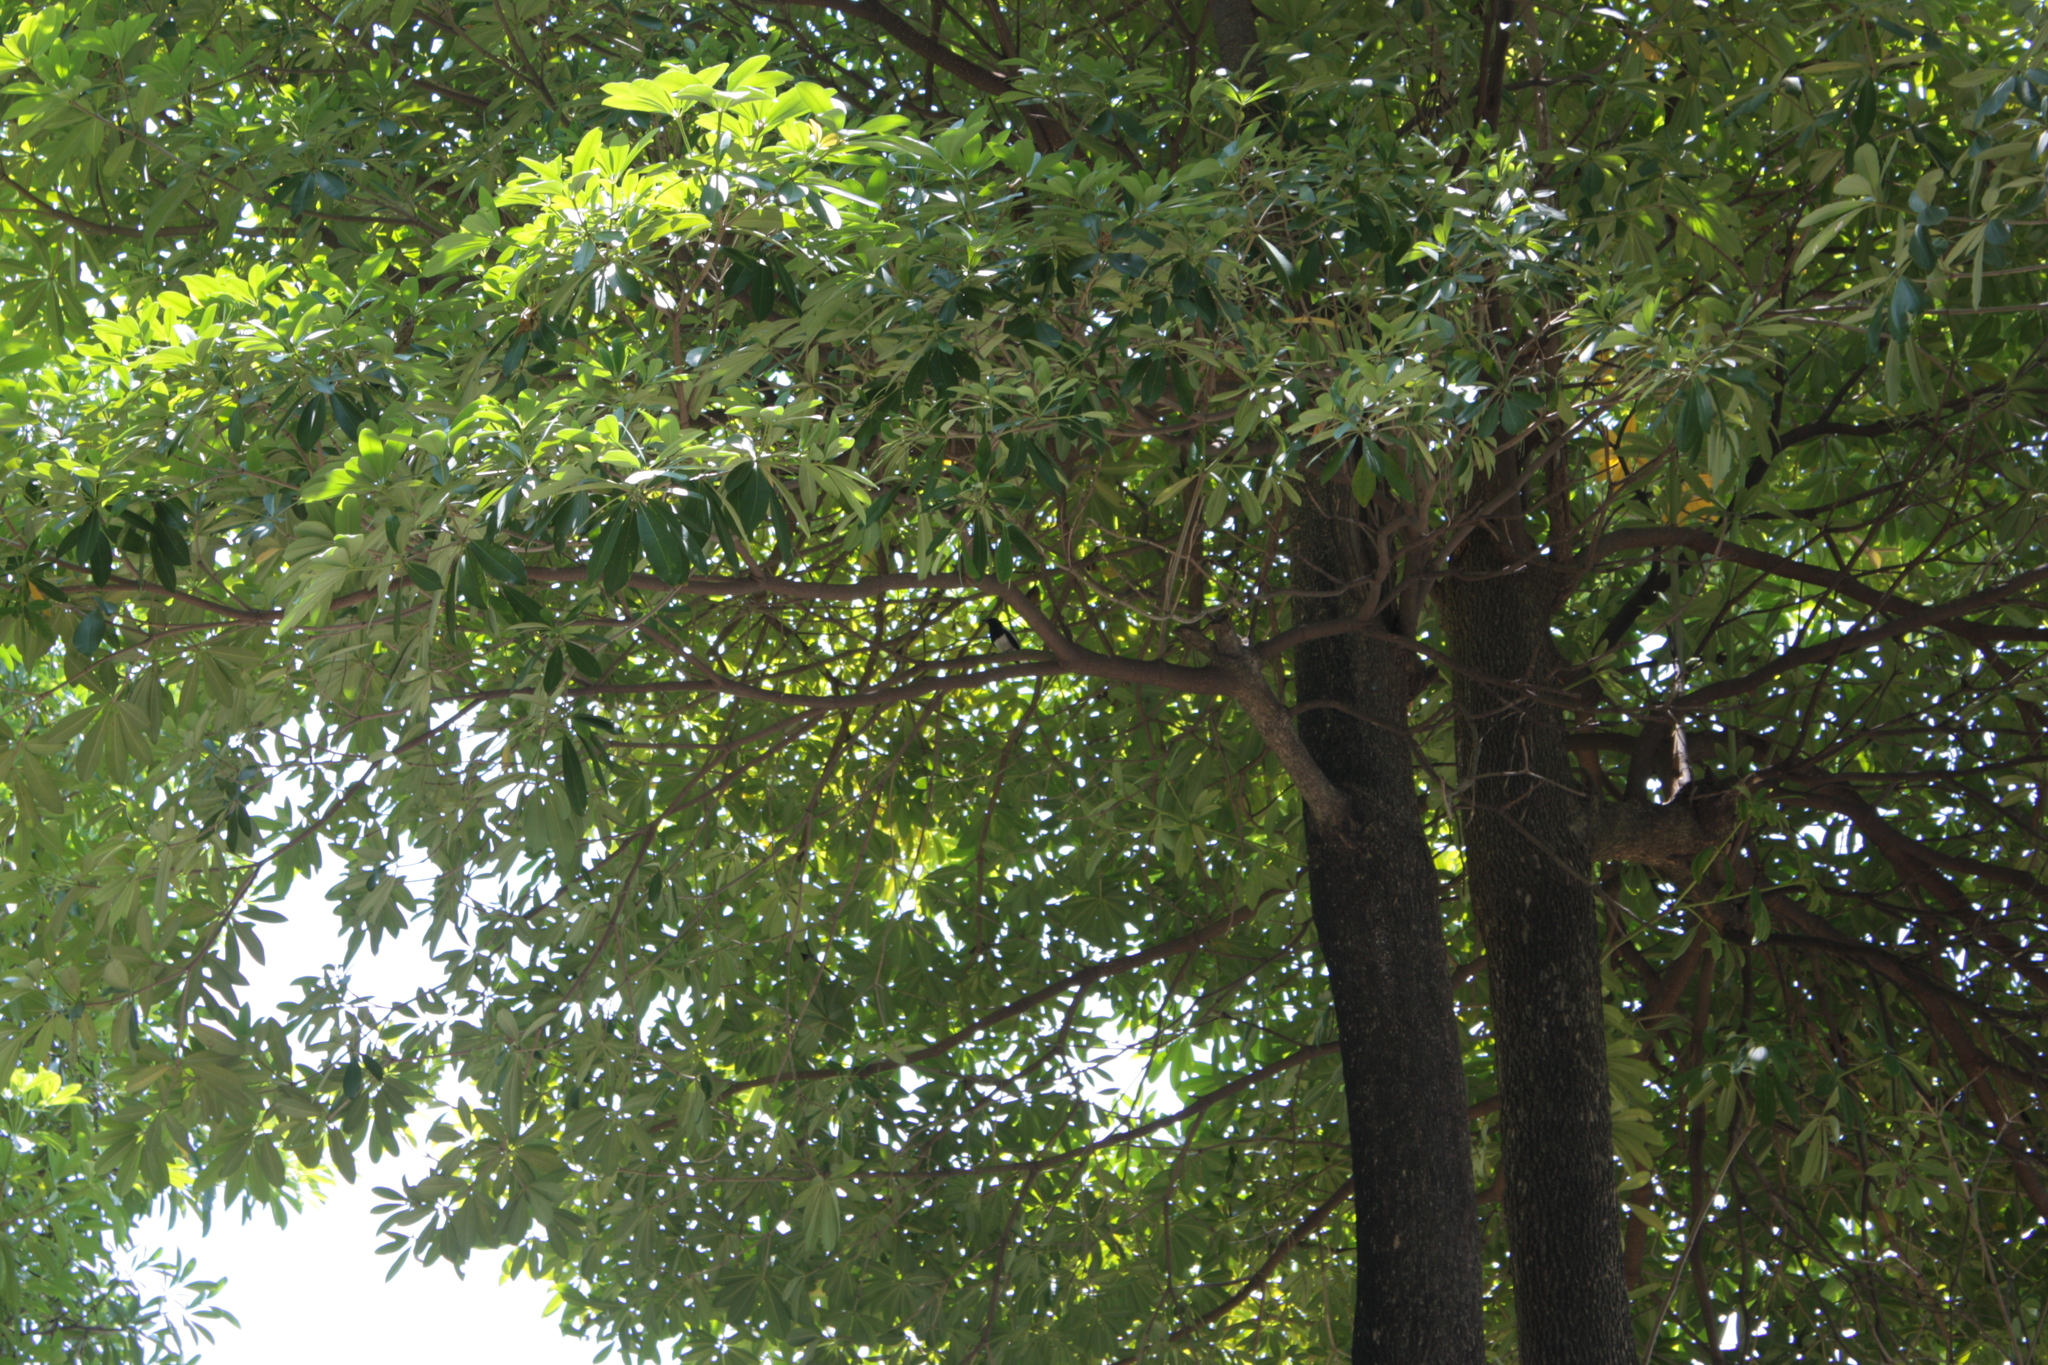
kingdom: Animalia
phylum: Chordata
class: Aves
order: Passeriformes
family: Muscicapidae
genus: Copsychus
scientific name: Copsychus saularis
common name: Oriental magpie-robin
